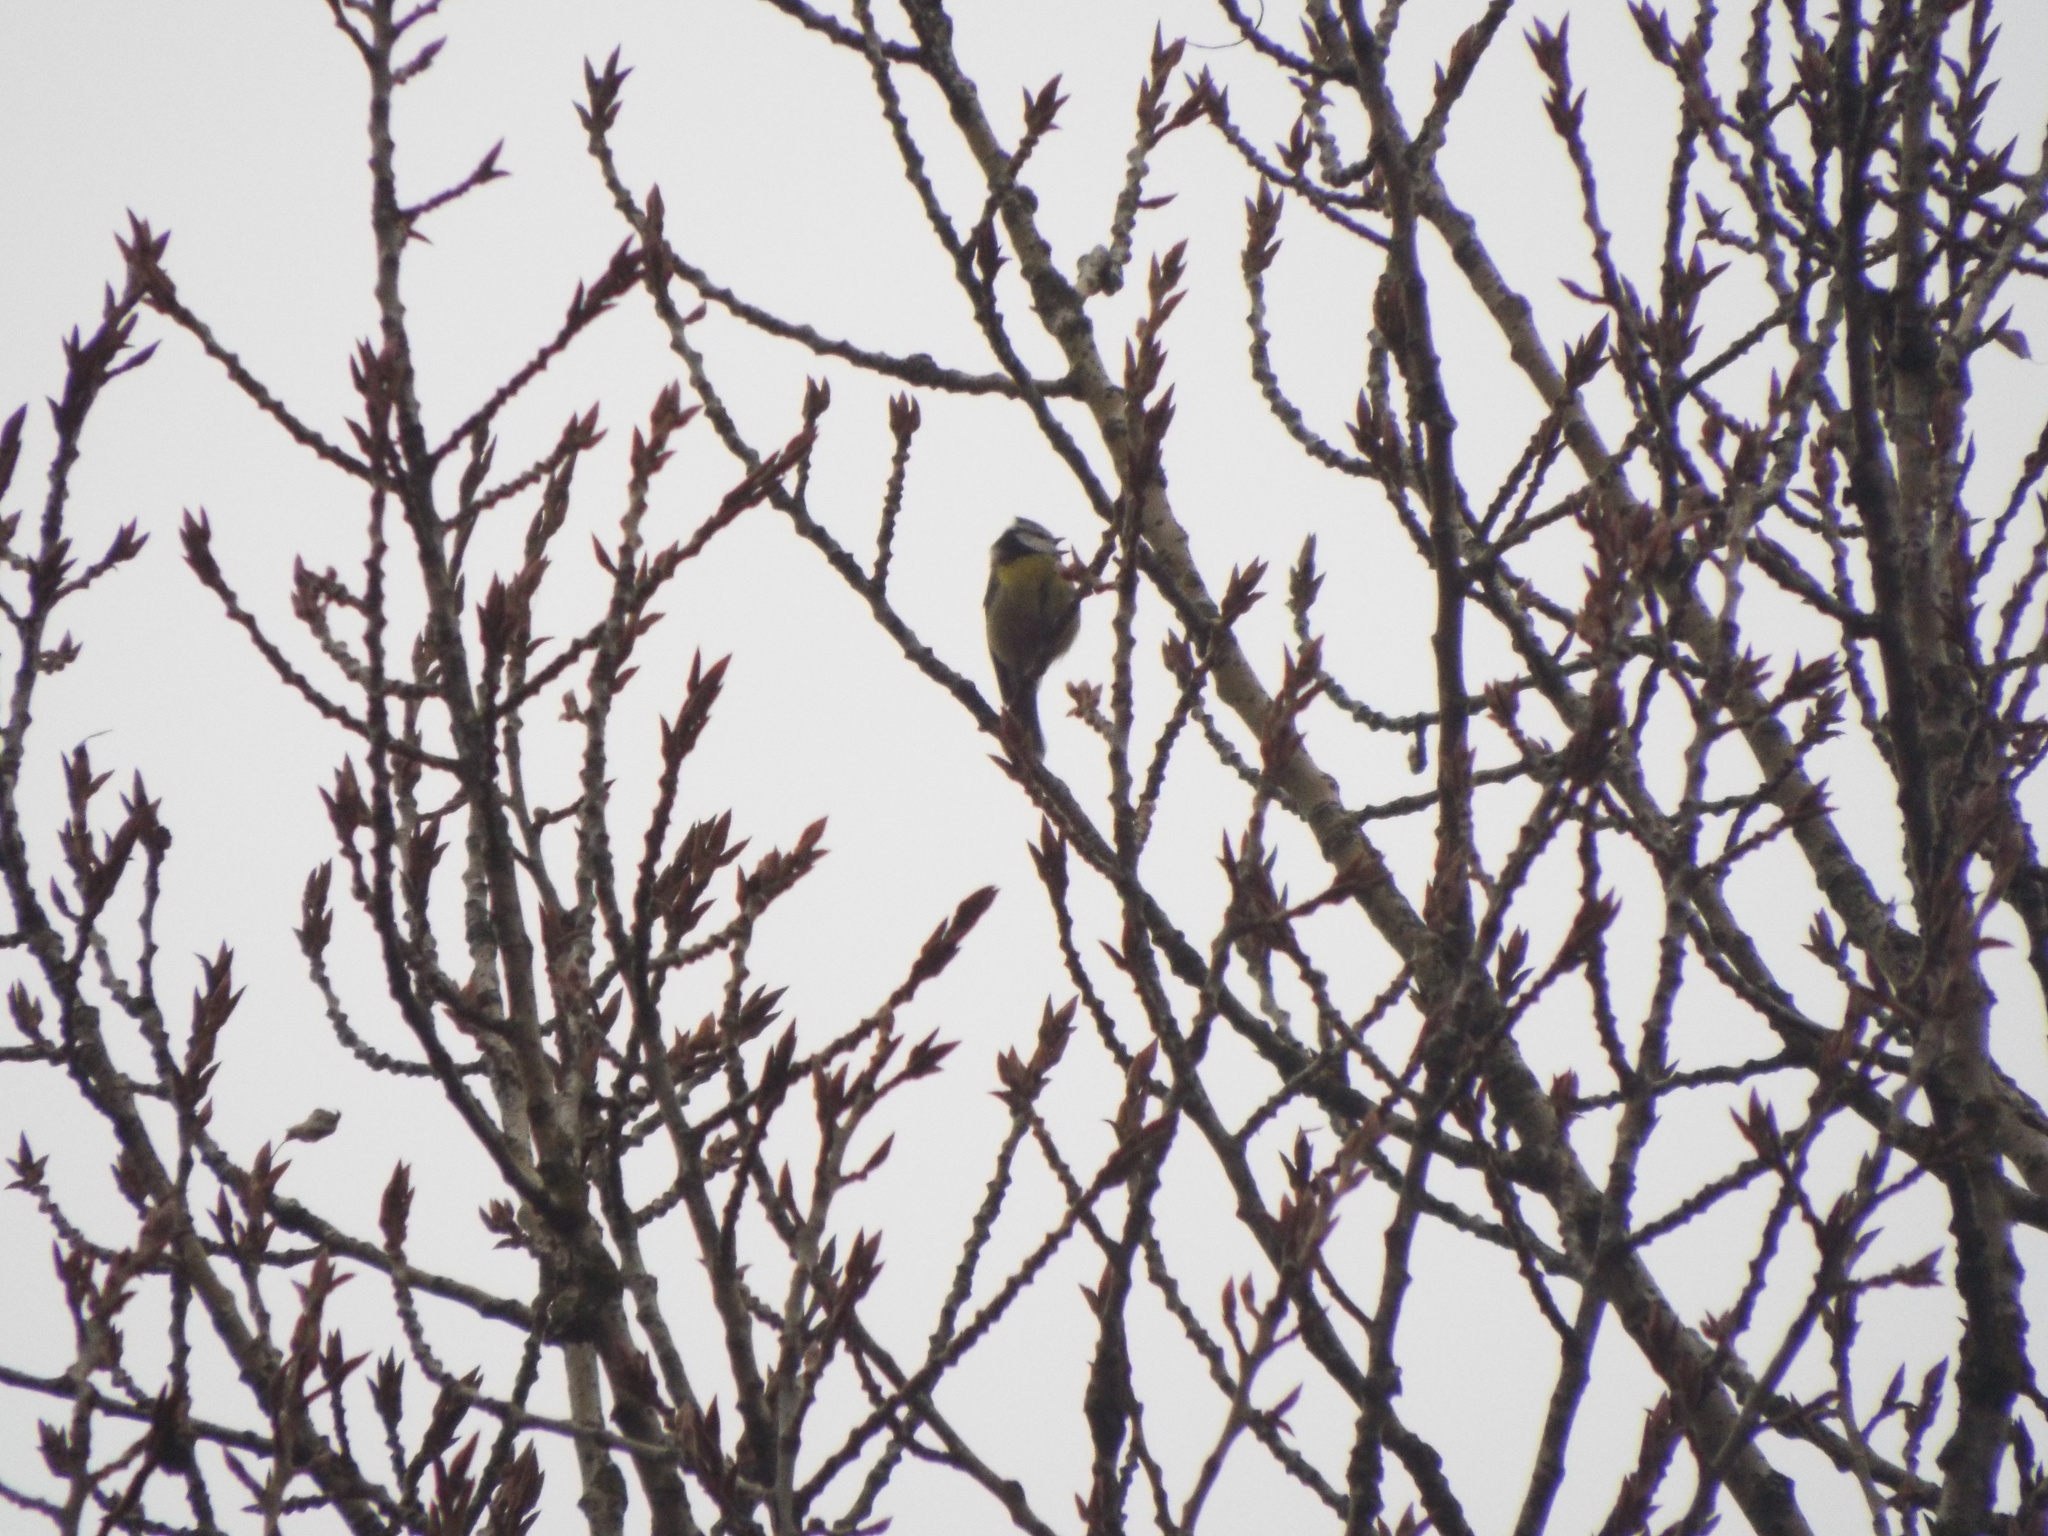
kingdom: Animalia
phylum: Chordata
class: Aves
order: Passeriformes
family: Paridae
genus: Cyanistes
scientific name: Cyanistes caeruleus
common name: Eurasian blue tit
